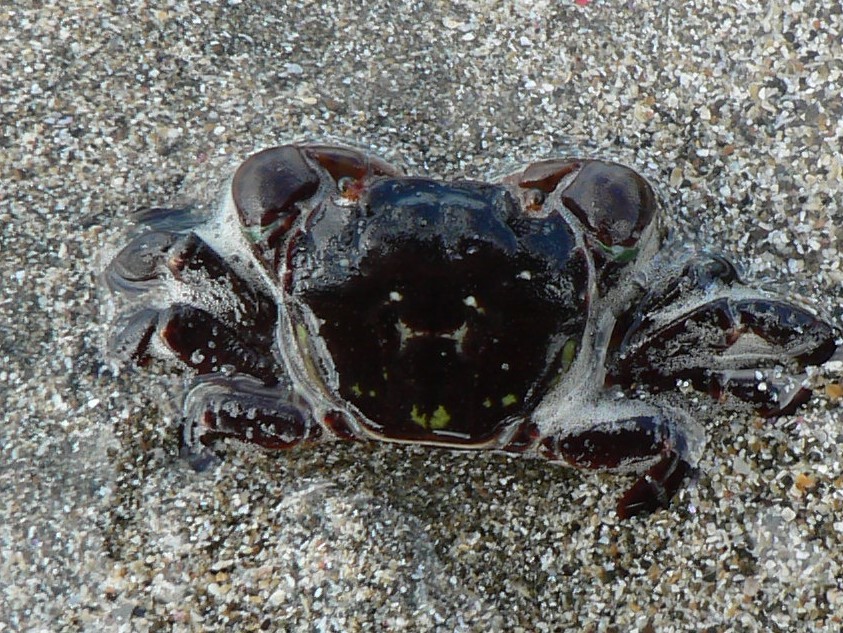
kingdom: Animalia
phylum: Arthropoda
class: Malacostraca
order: Decapoda
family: Varunidae
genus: Hemigrapsus
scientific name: Hemigrapsus nudus
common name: Purple shore crab
